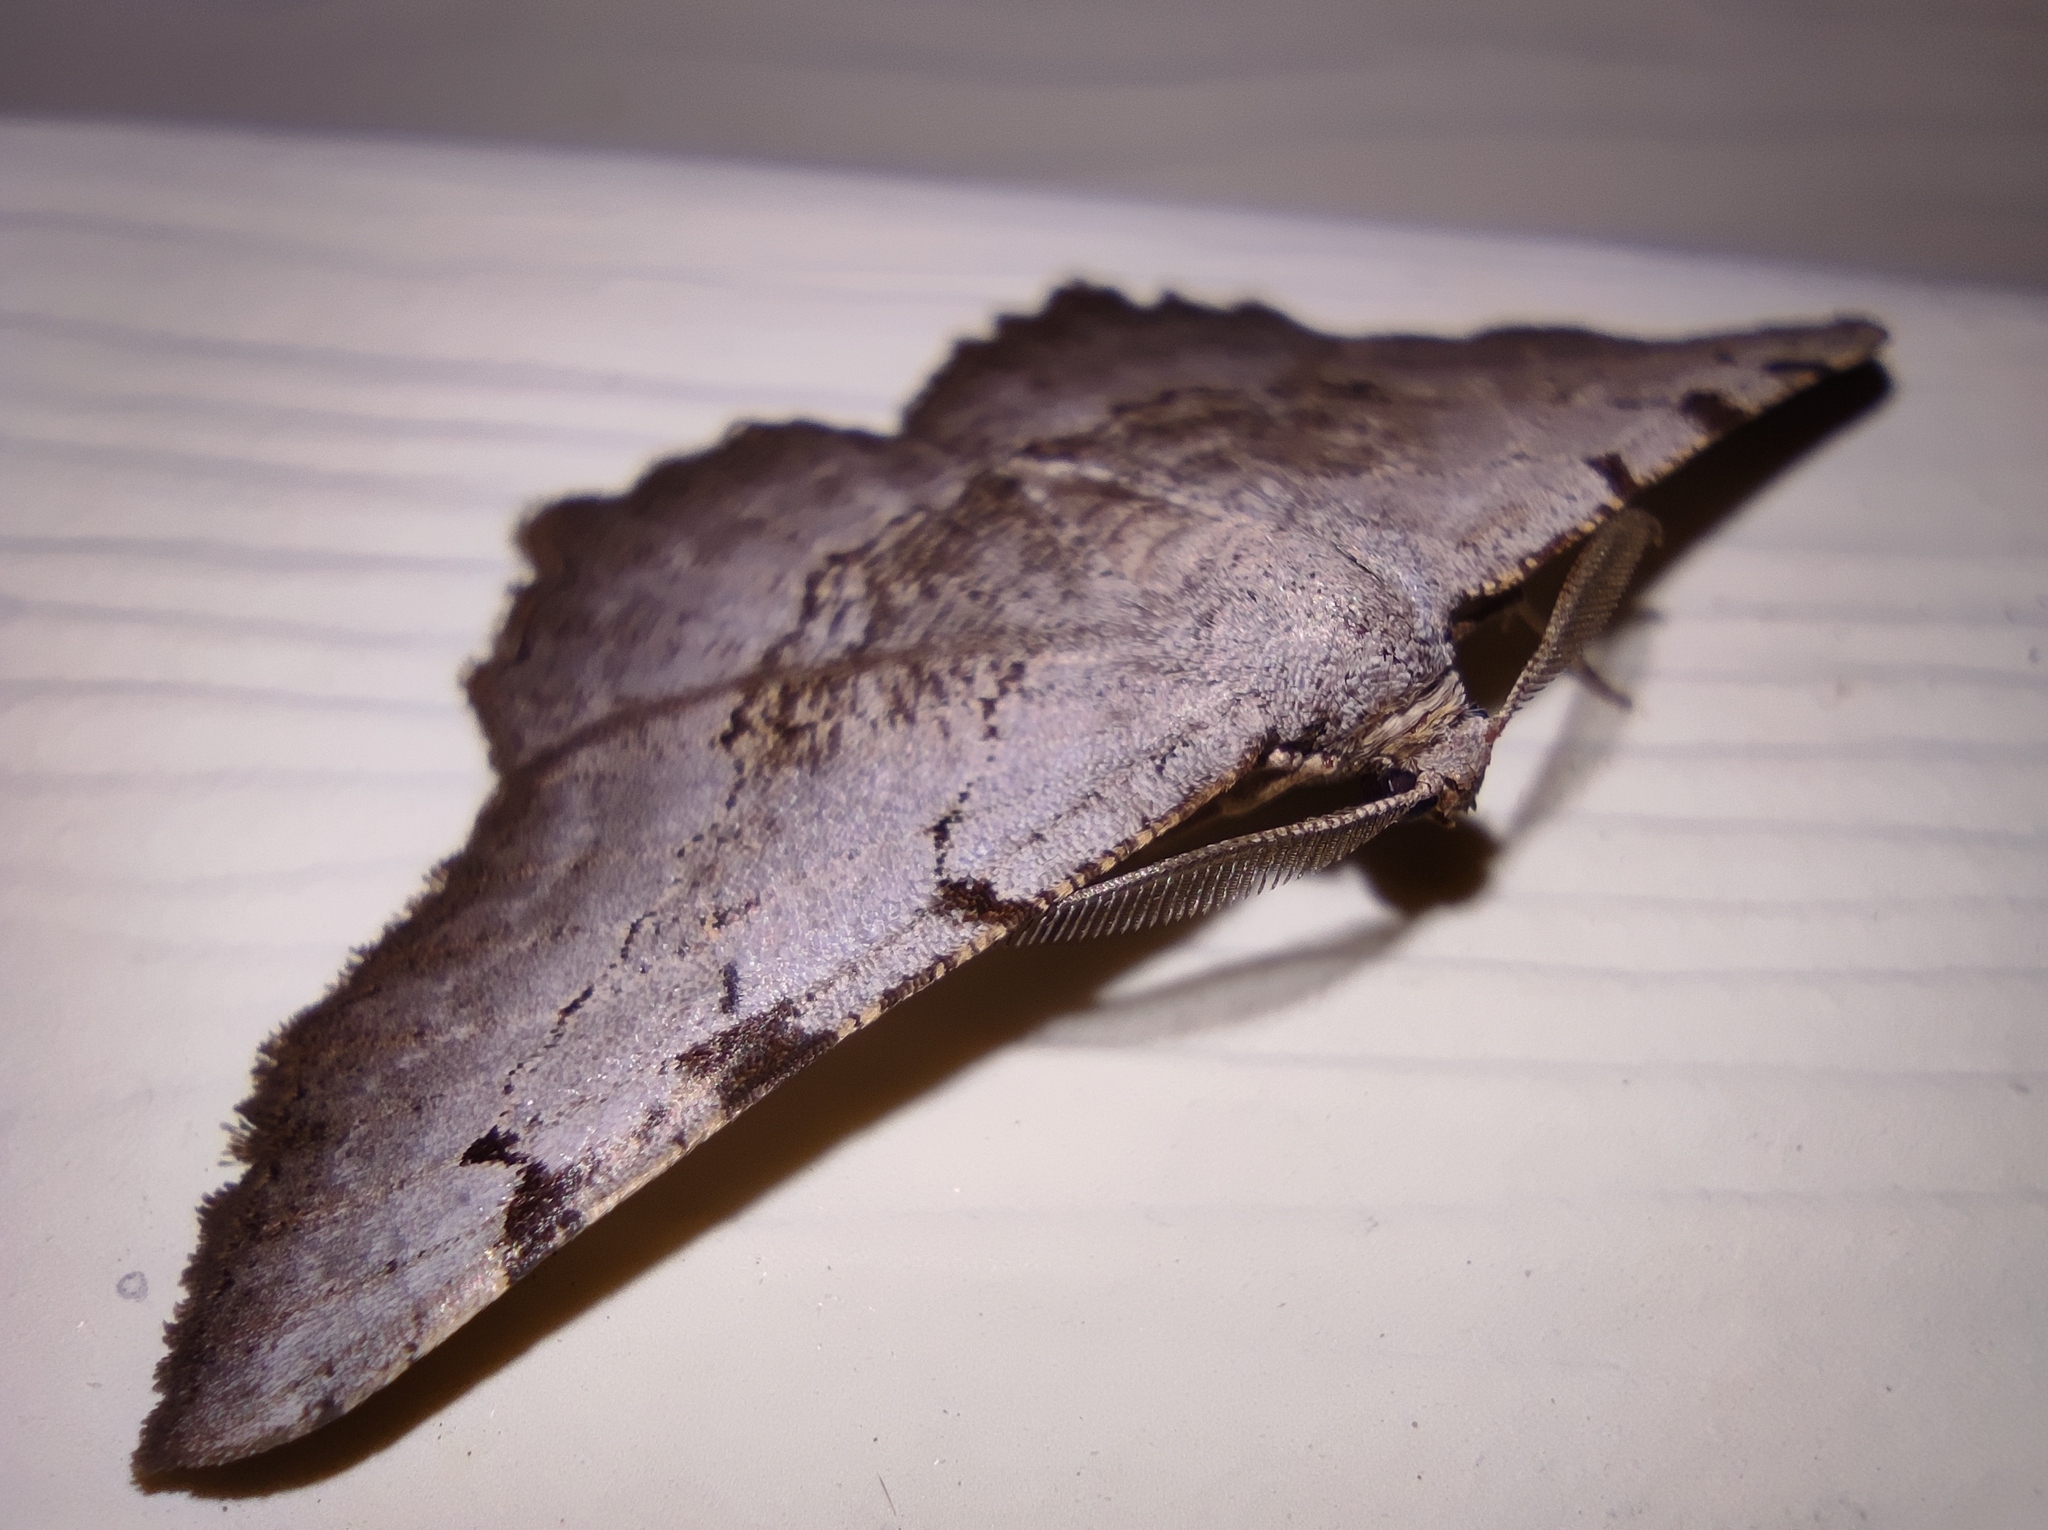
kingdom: Animalia
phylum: Arthropoda
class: Insecta
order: Lepidoptera
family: Geometridae
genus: Neognopharmia
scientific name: Neognopharmia stevenaria
